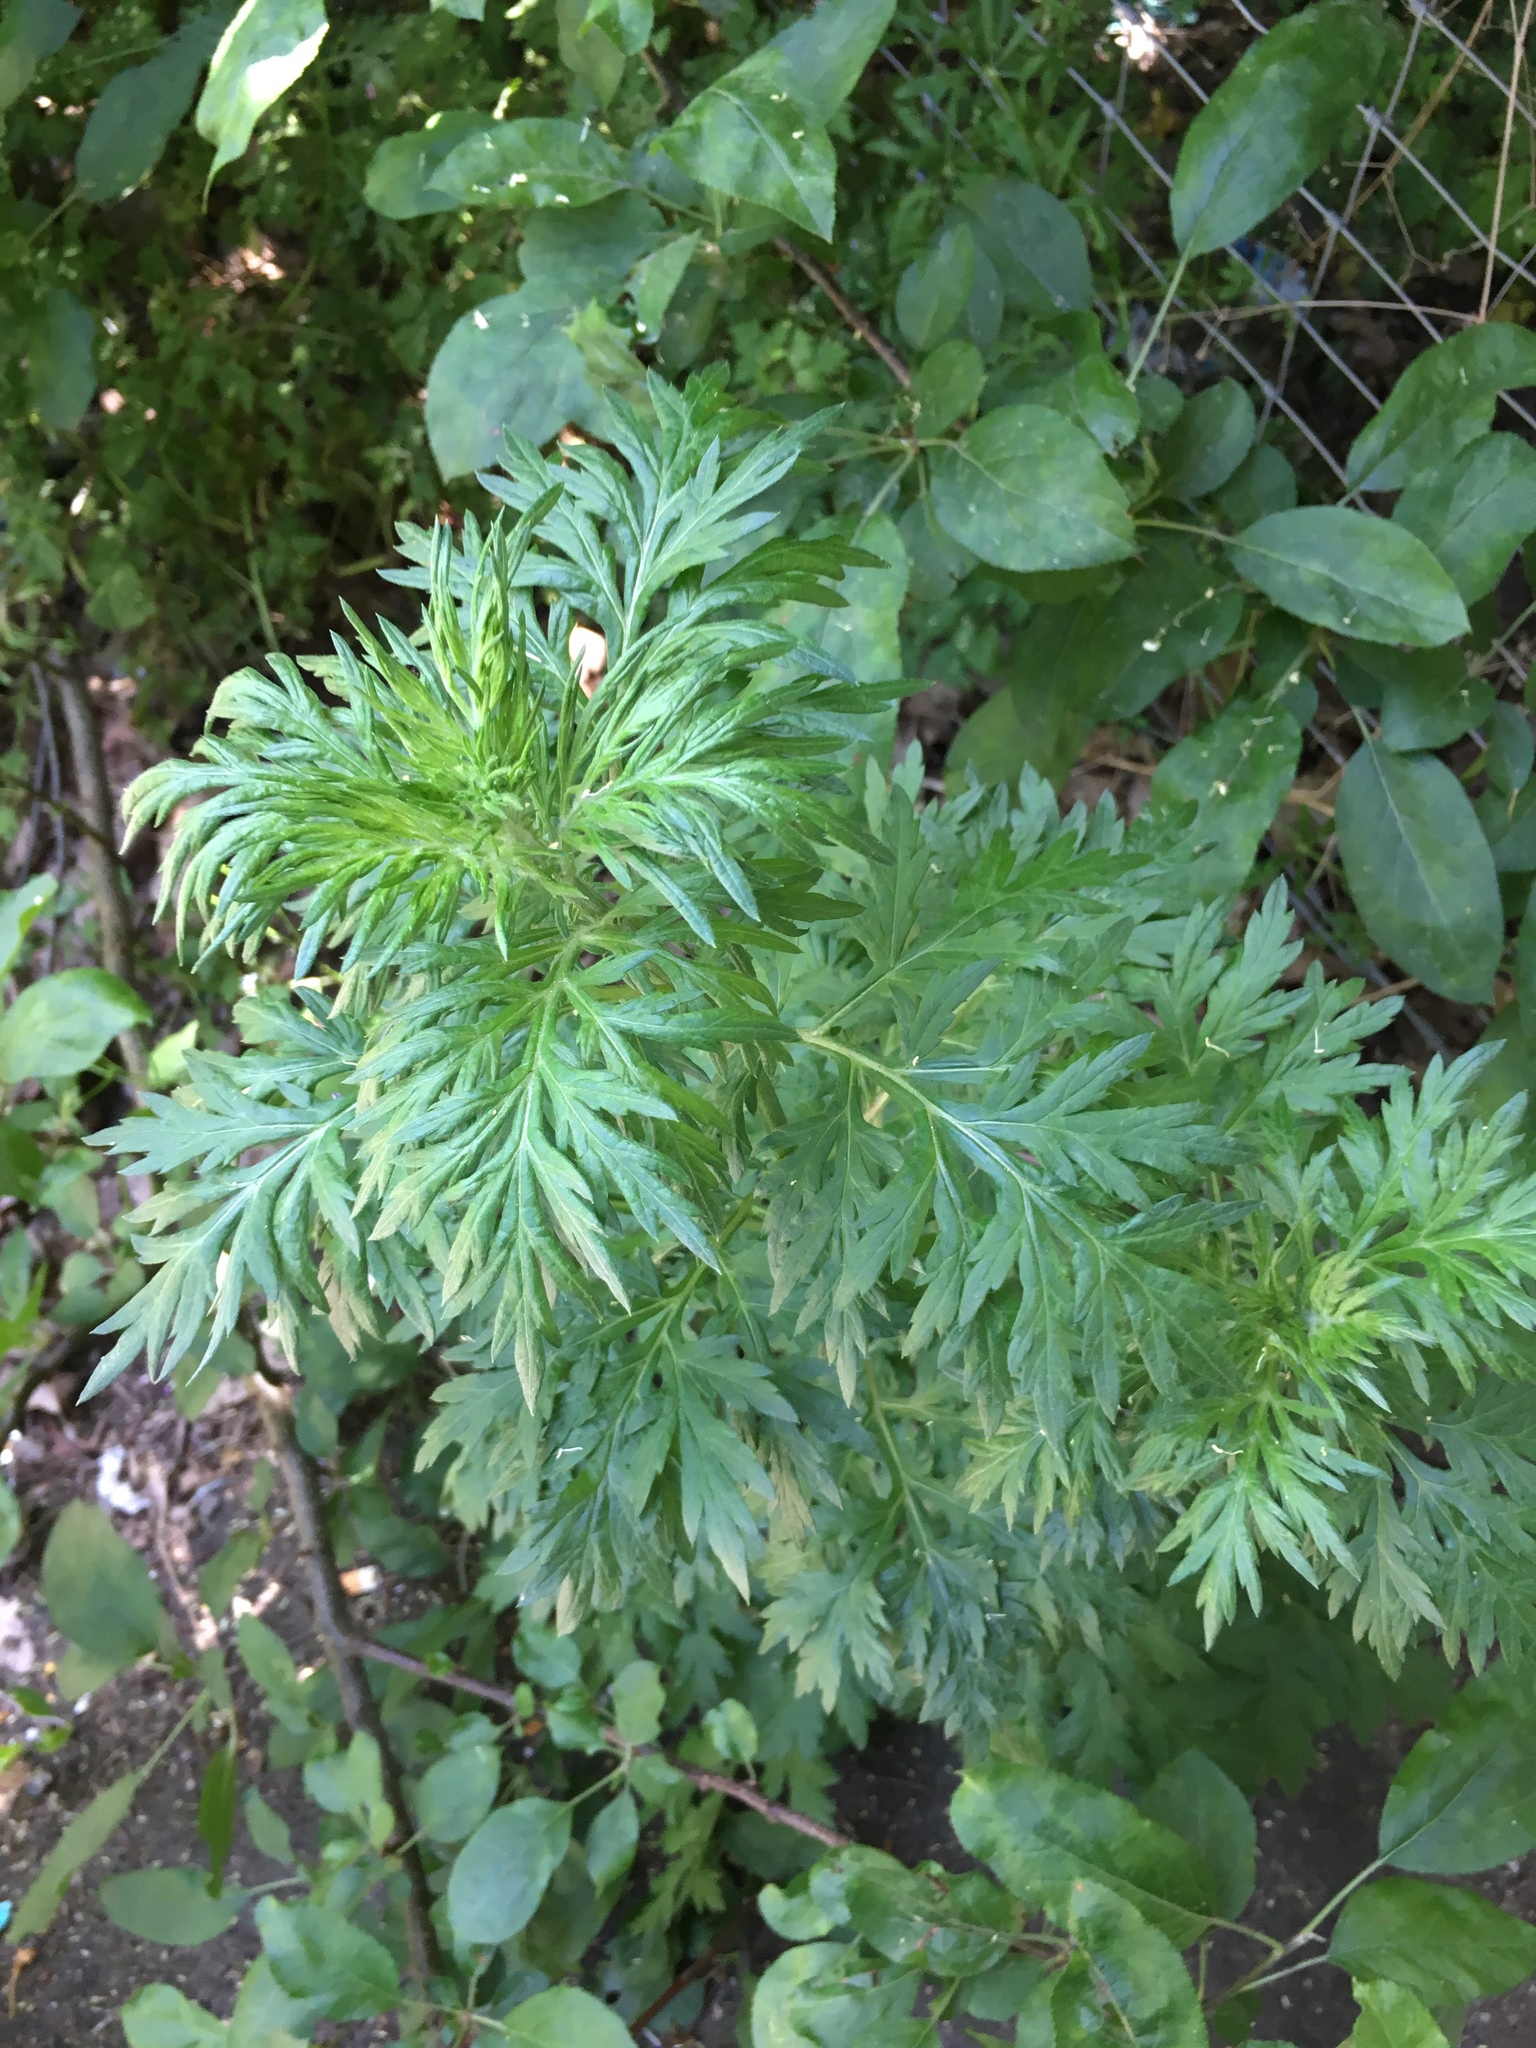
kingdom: Plantae
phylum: Tracheophyta
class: Magnoliopsida
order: Asterales
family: Asteraceae
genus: Artemisia
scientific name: Artemisia vulgaris
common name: Mugwort
